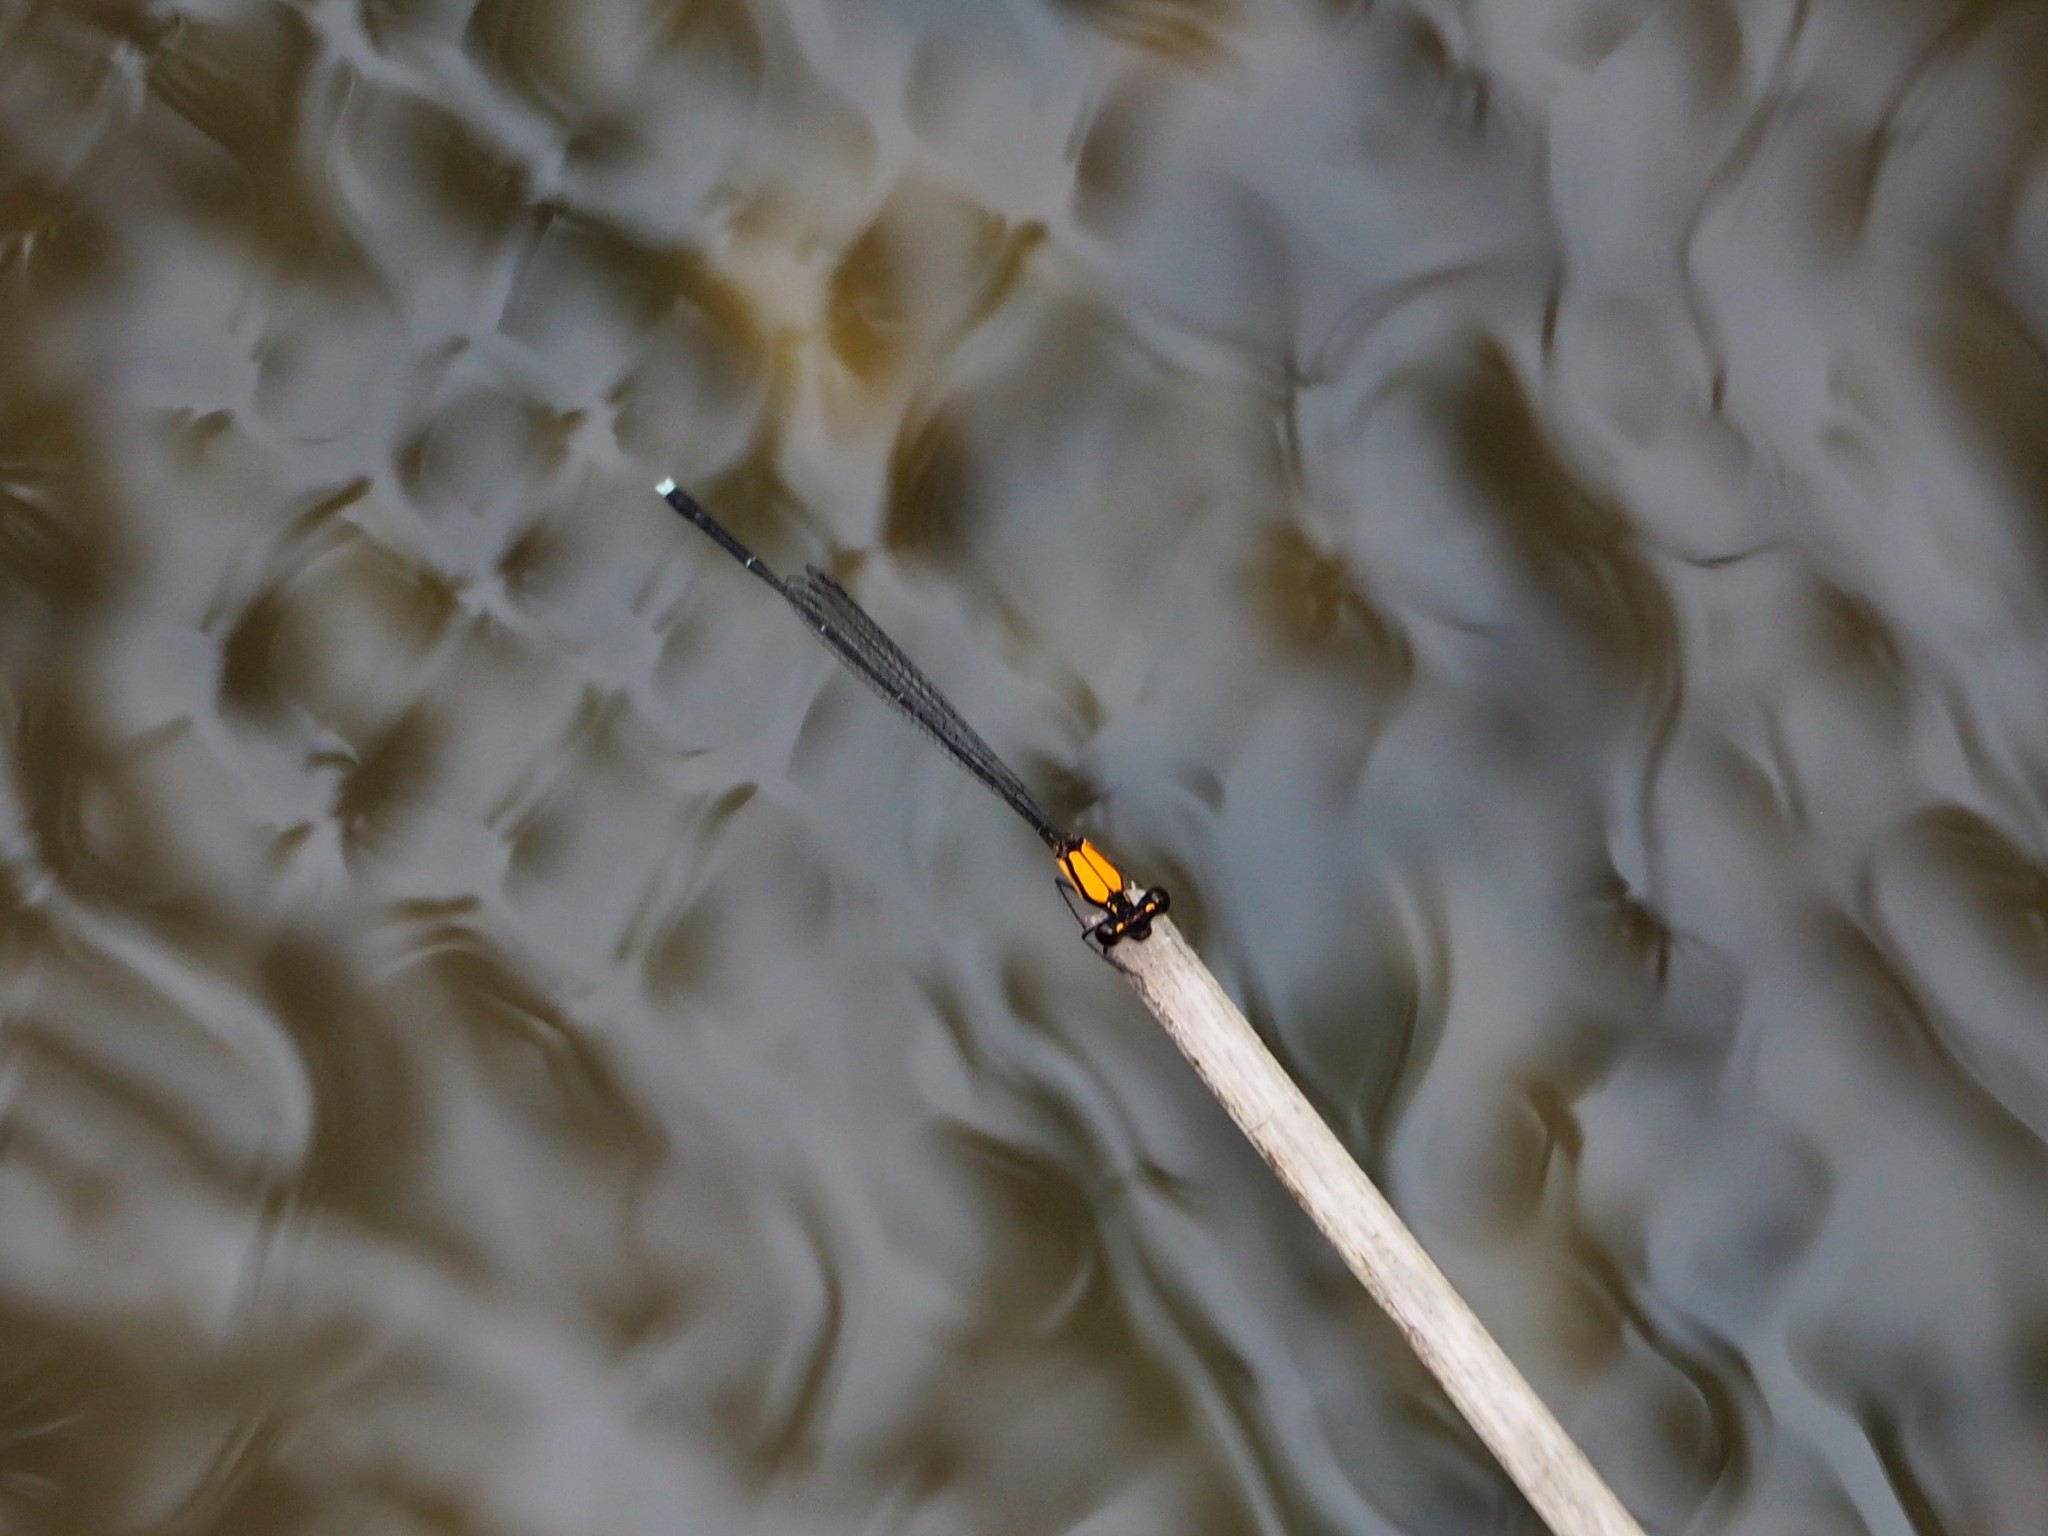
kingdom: Animalia
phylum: Arthropoda
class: Insecta
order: Odonata
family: Platycnemididae
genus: Prodasineura
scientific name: Prodasineura croconota
